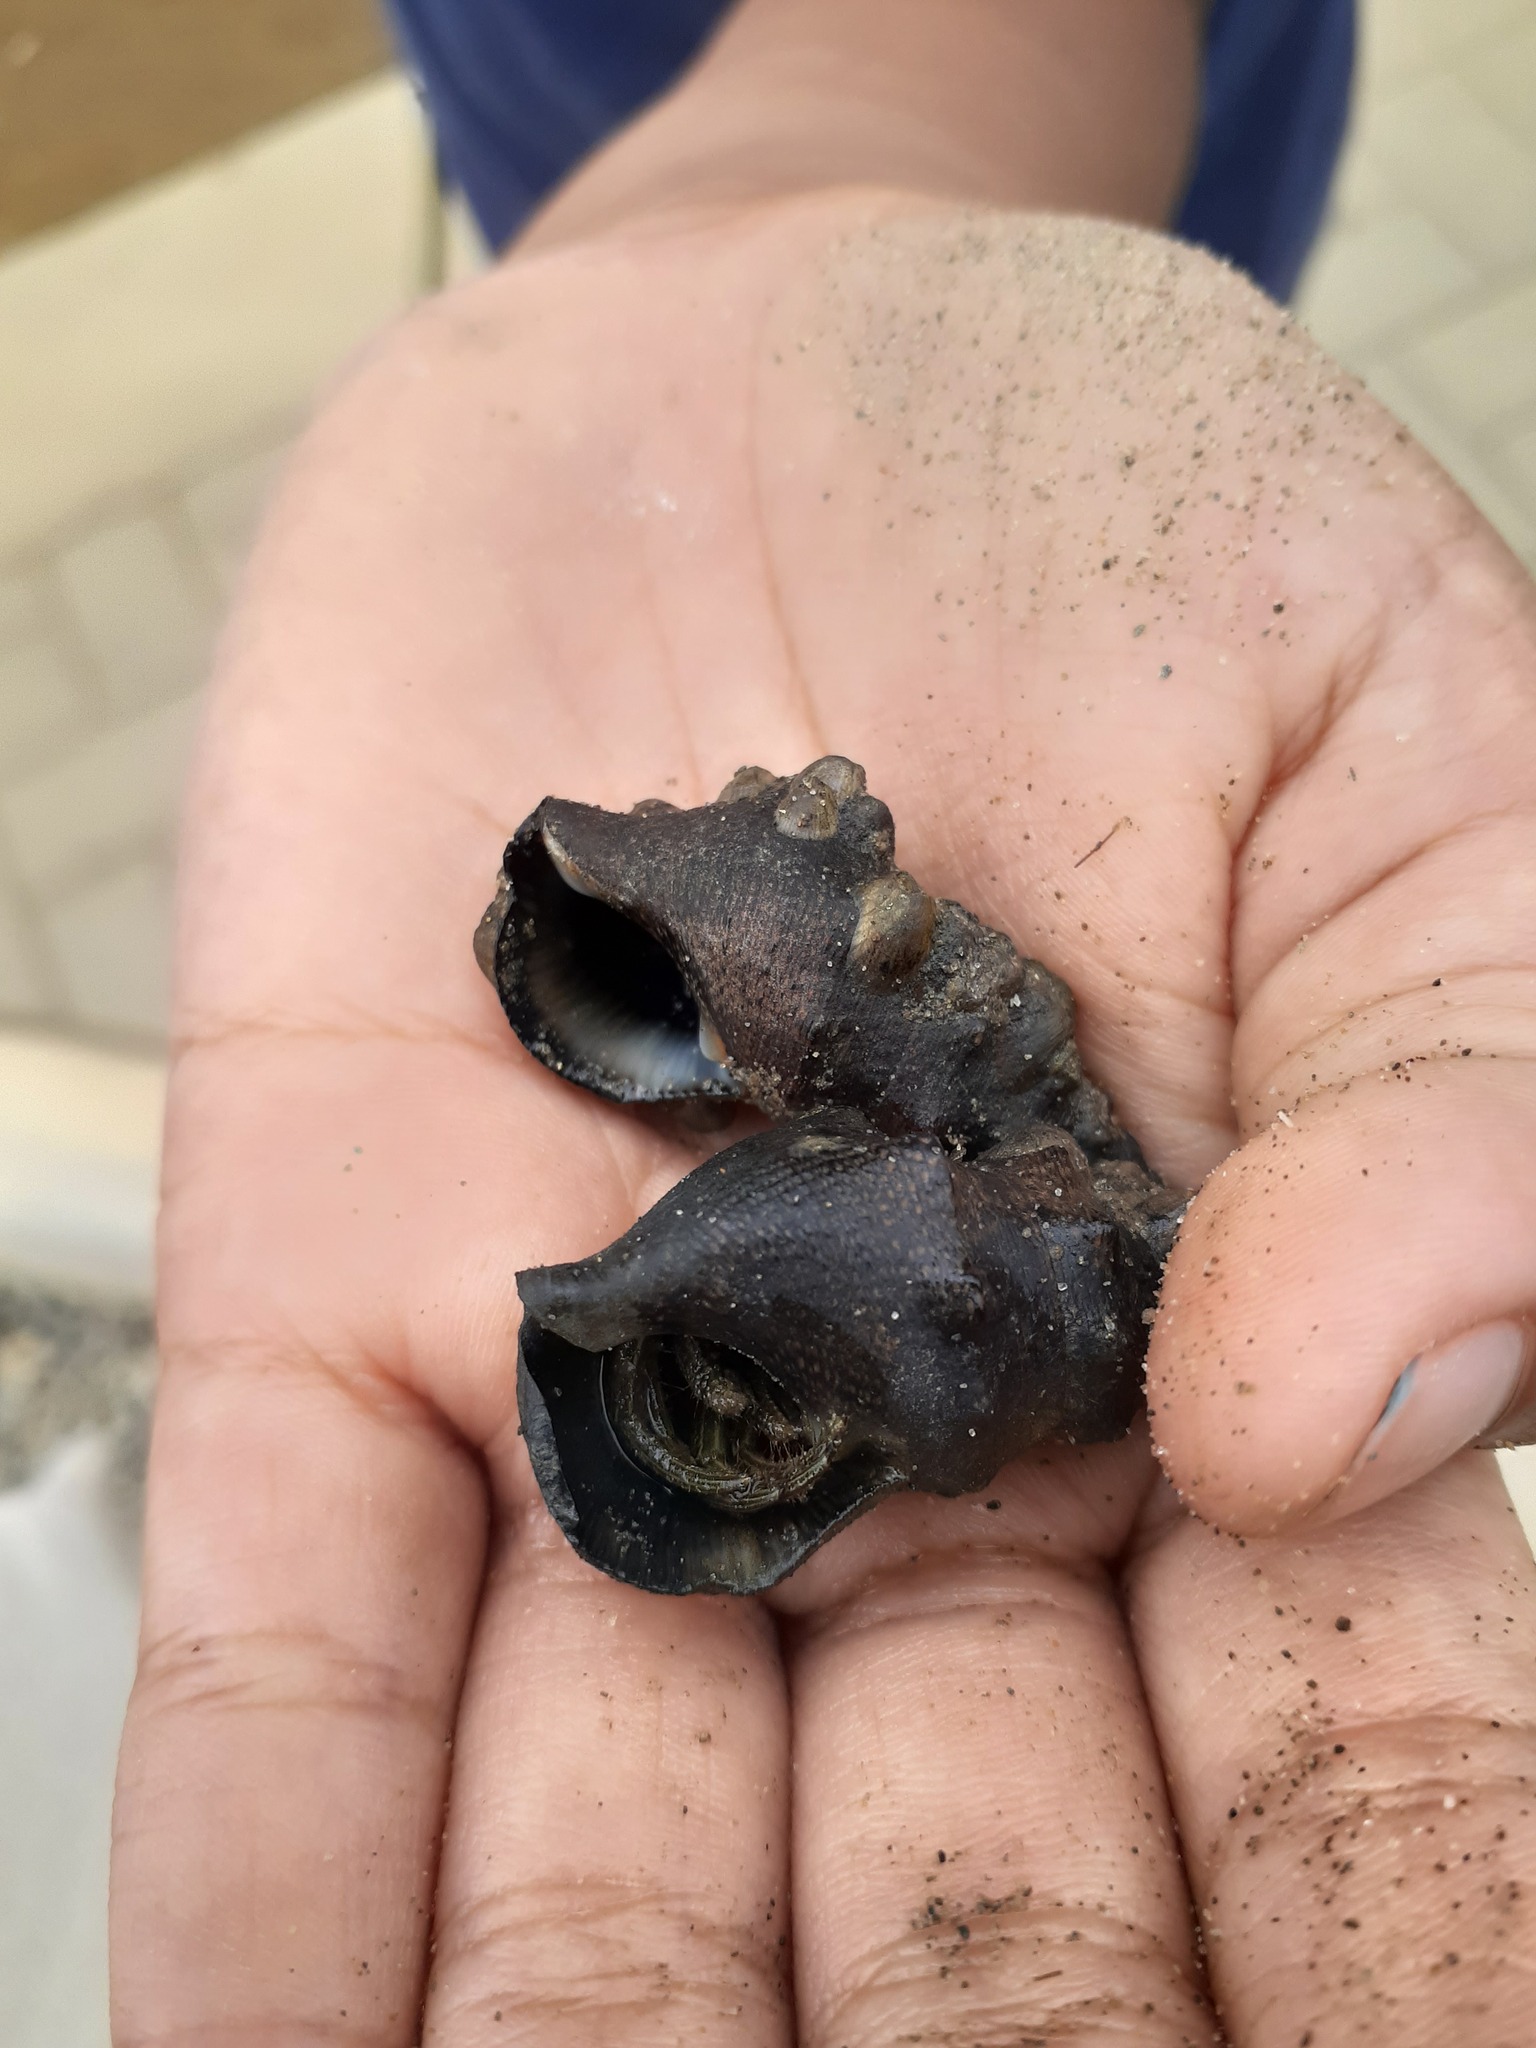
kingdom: Animalia
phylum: Mollusca
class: Gastropoda
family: Cerithiidae
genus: Cerithium
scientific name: Cerithium stercusmuscarum
